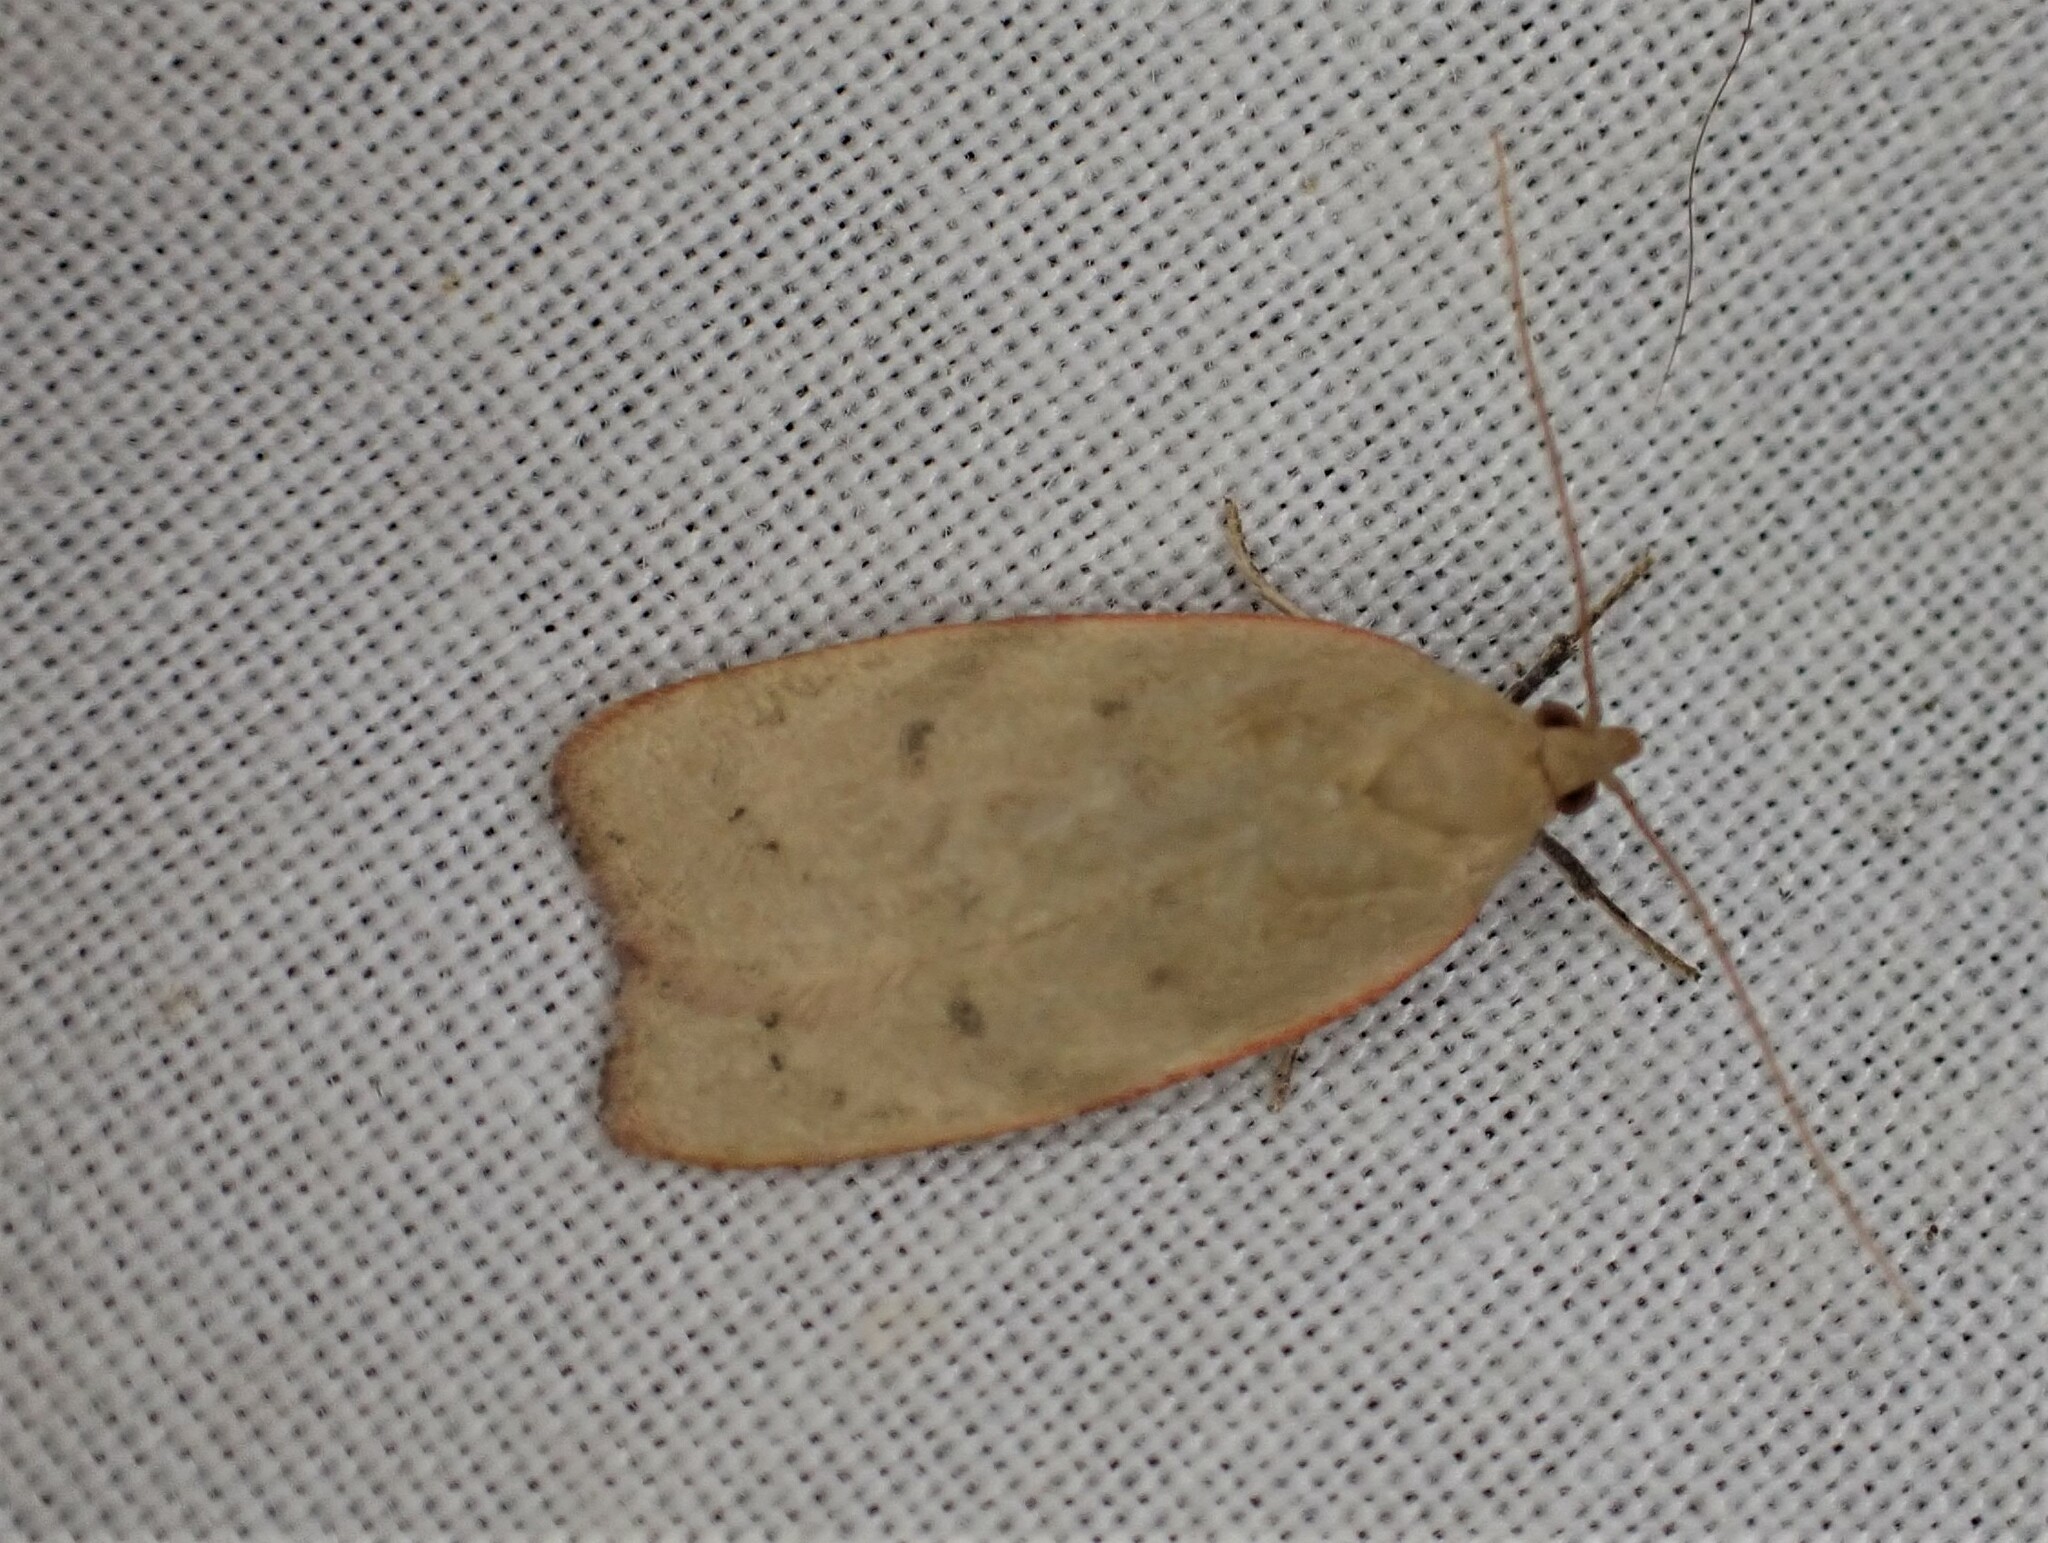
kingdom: Animalia
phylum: Arthropoda
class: Insecta
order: Lepidoptera
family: Depressariidae
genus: Phaeosaces
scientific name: Phaeosaces coarctatella
